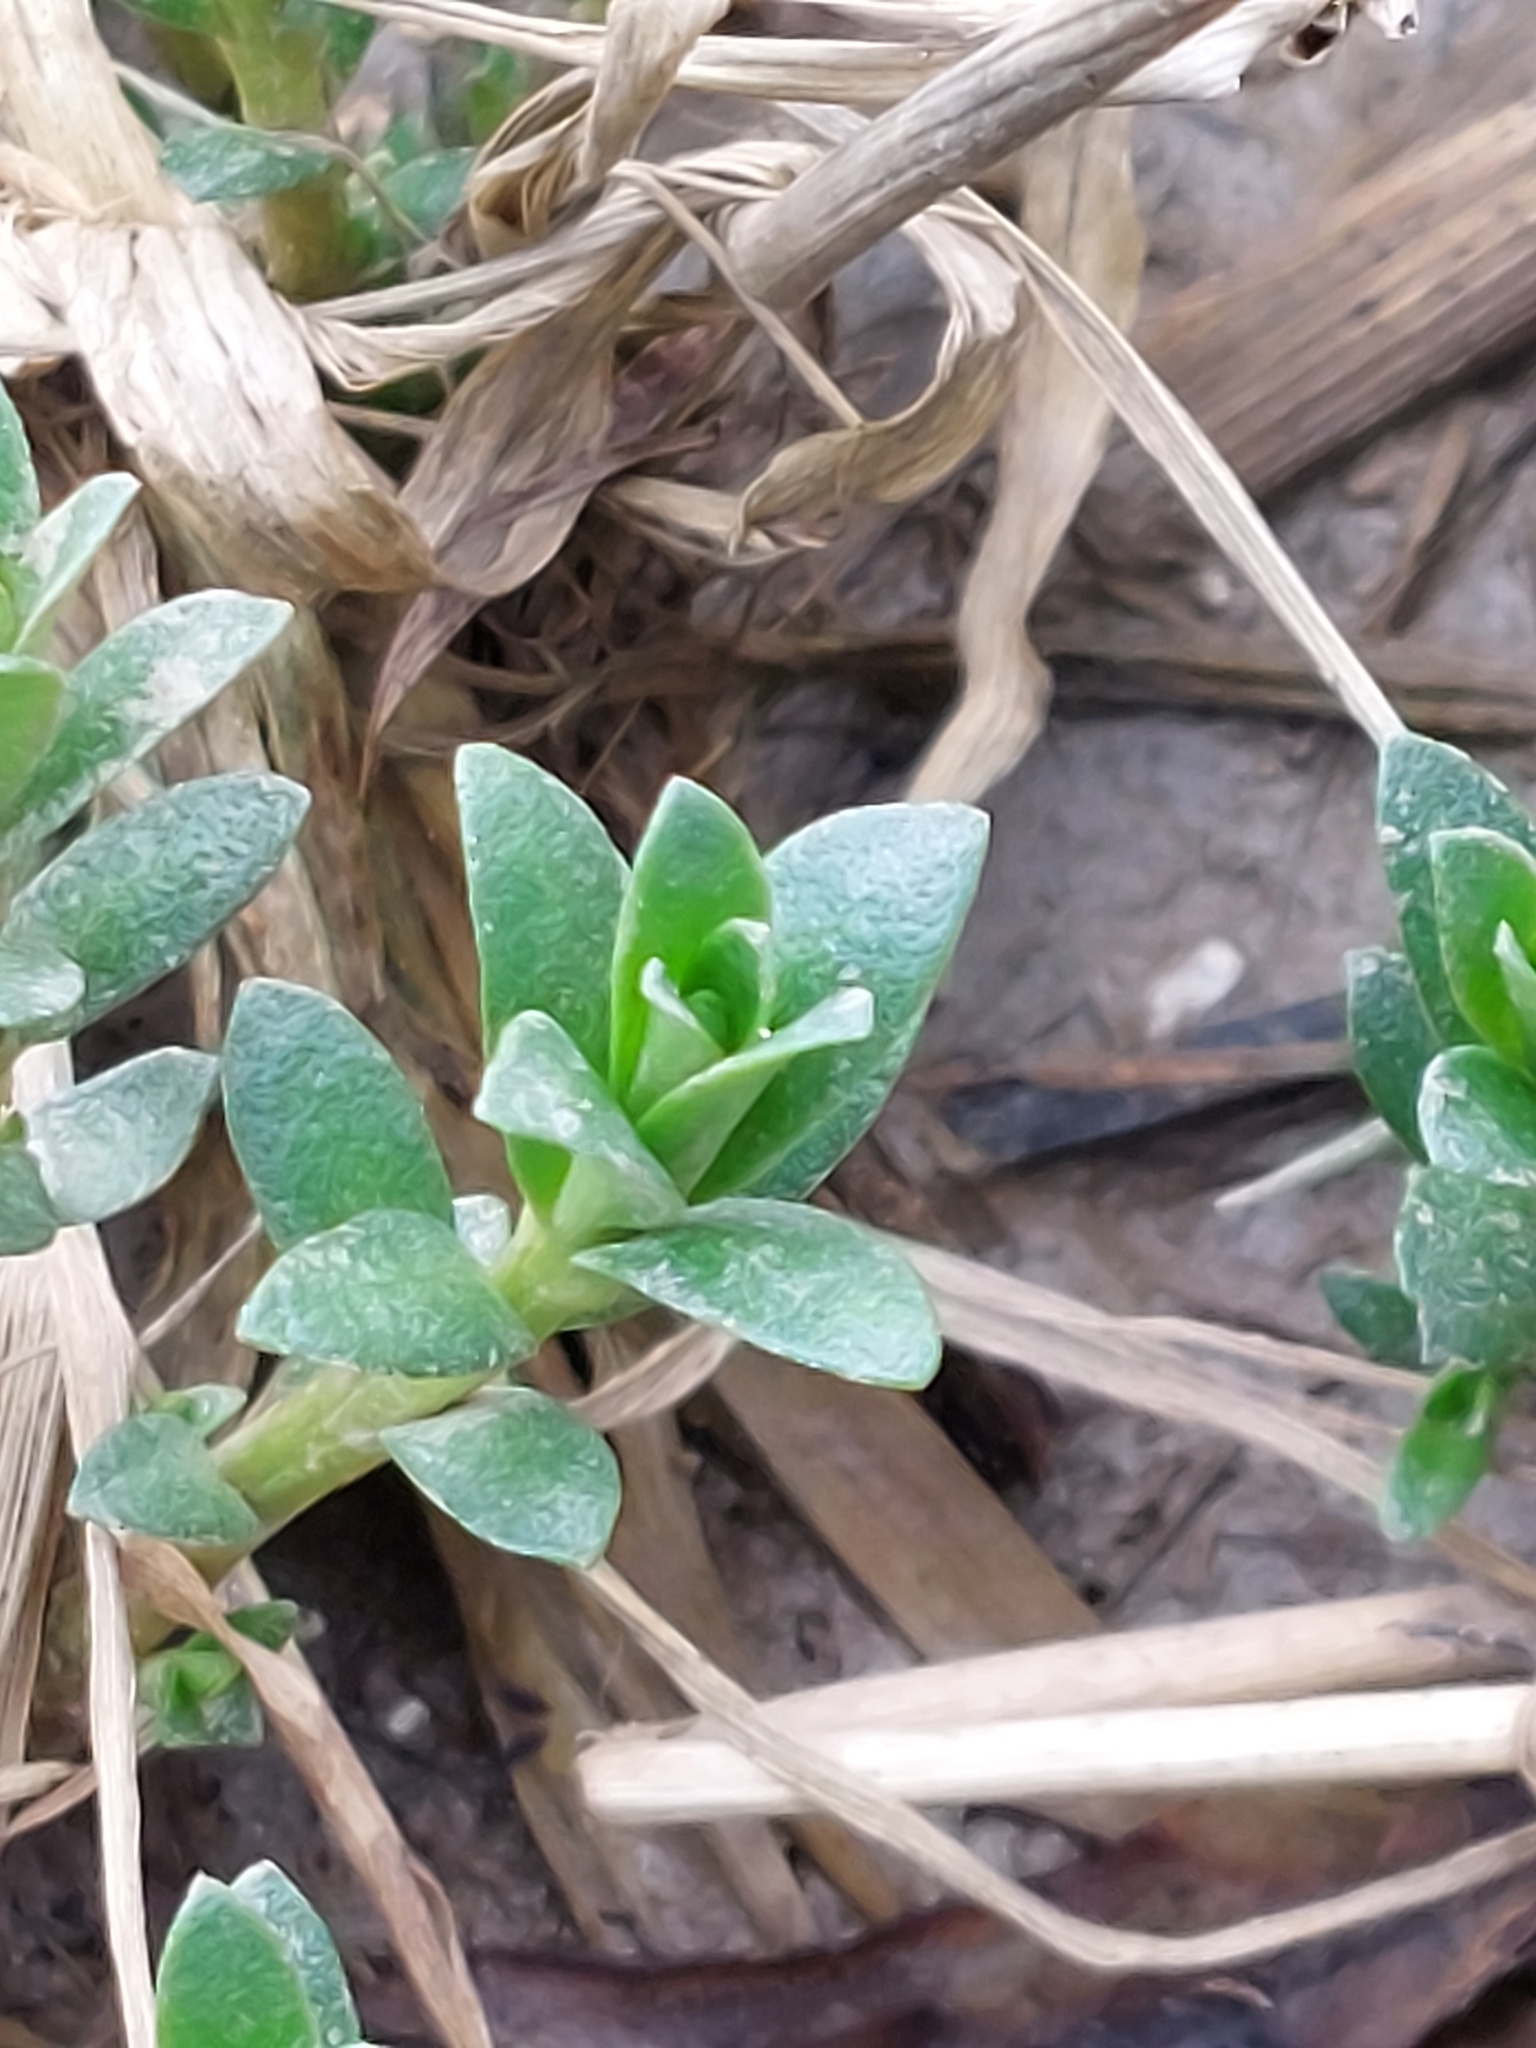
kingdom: Plantae
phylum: Tracheophyta
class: Magnoliopsida
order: Ericales
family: Primulaceae
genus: Lysimachia
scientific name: Lysimachia maritima
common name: Sea milkwort
